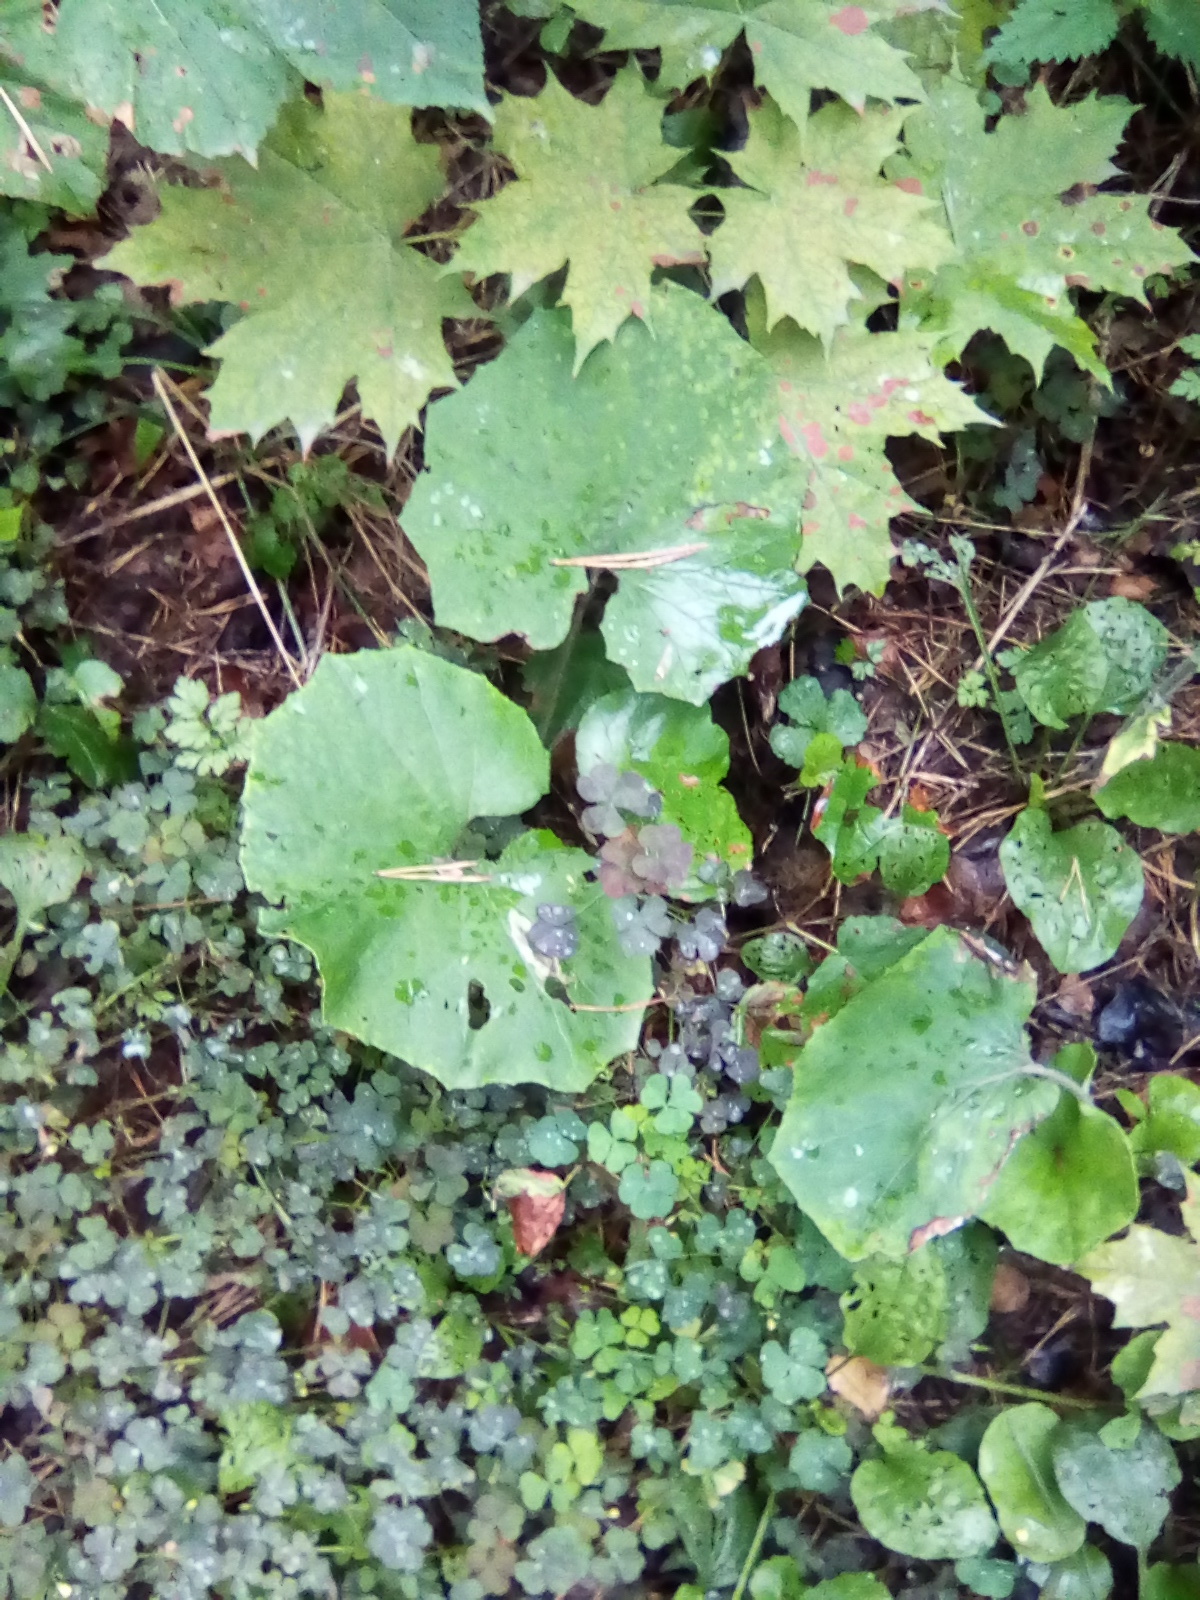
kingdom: Plantae
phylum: Tracheophyta
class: Magnoliopsida
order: Asterales
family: Asteraceae
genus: Tussilago
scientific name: Tussilago farfara
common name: Coltsfoot
